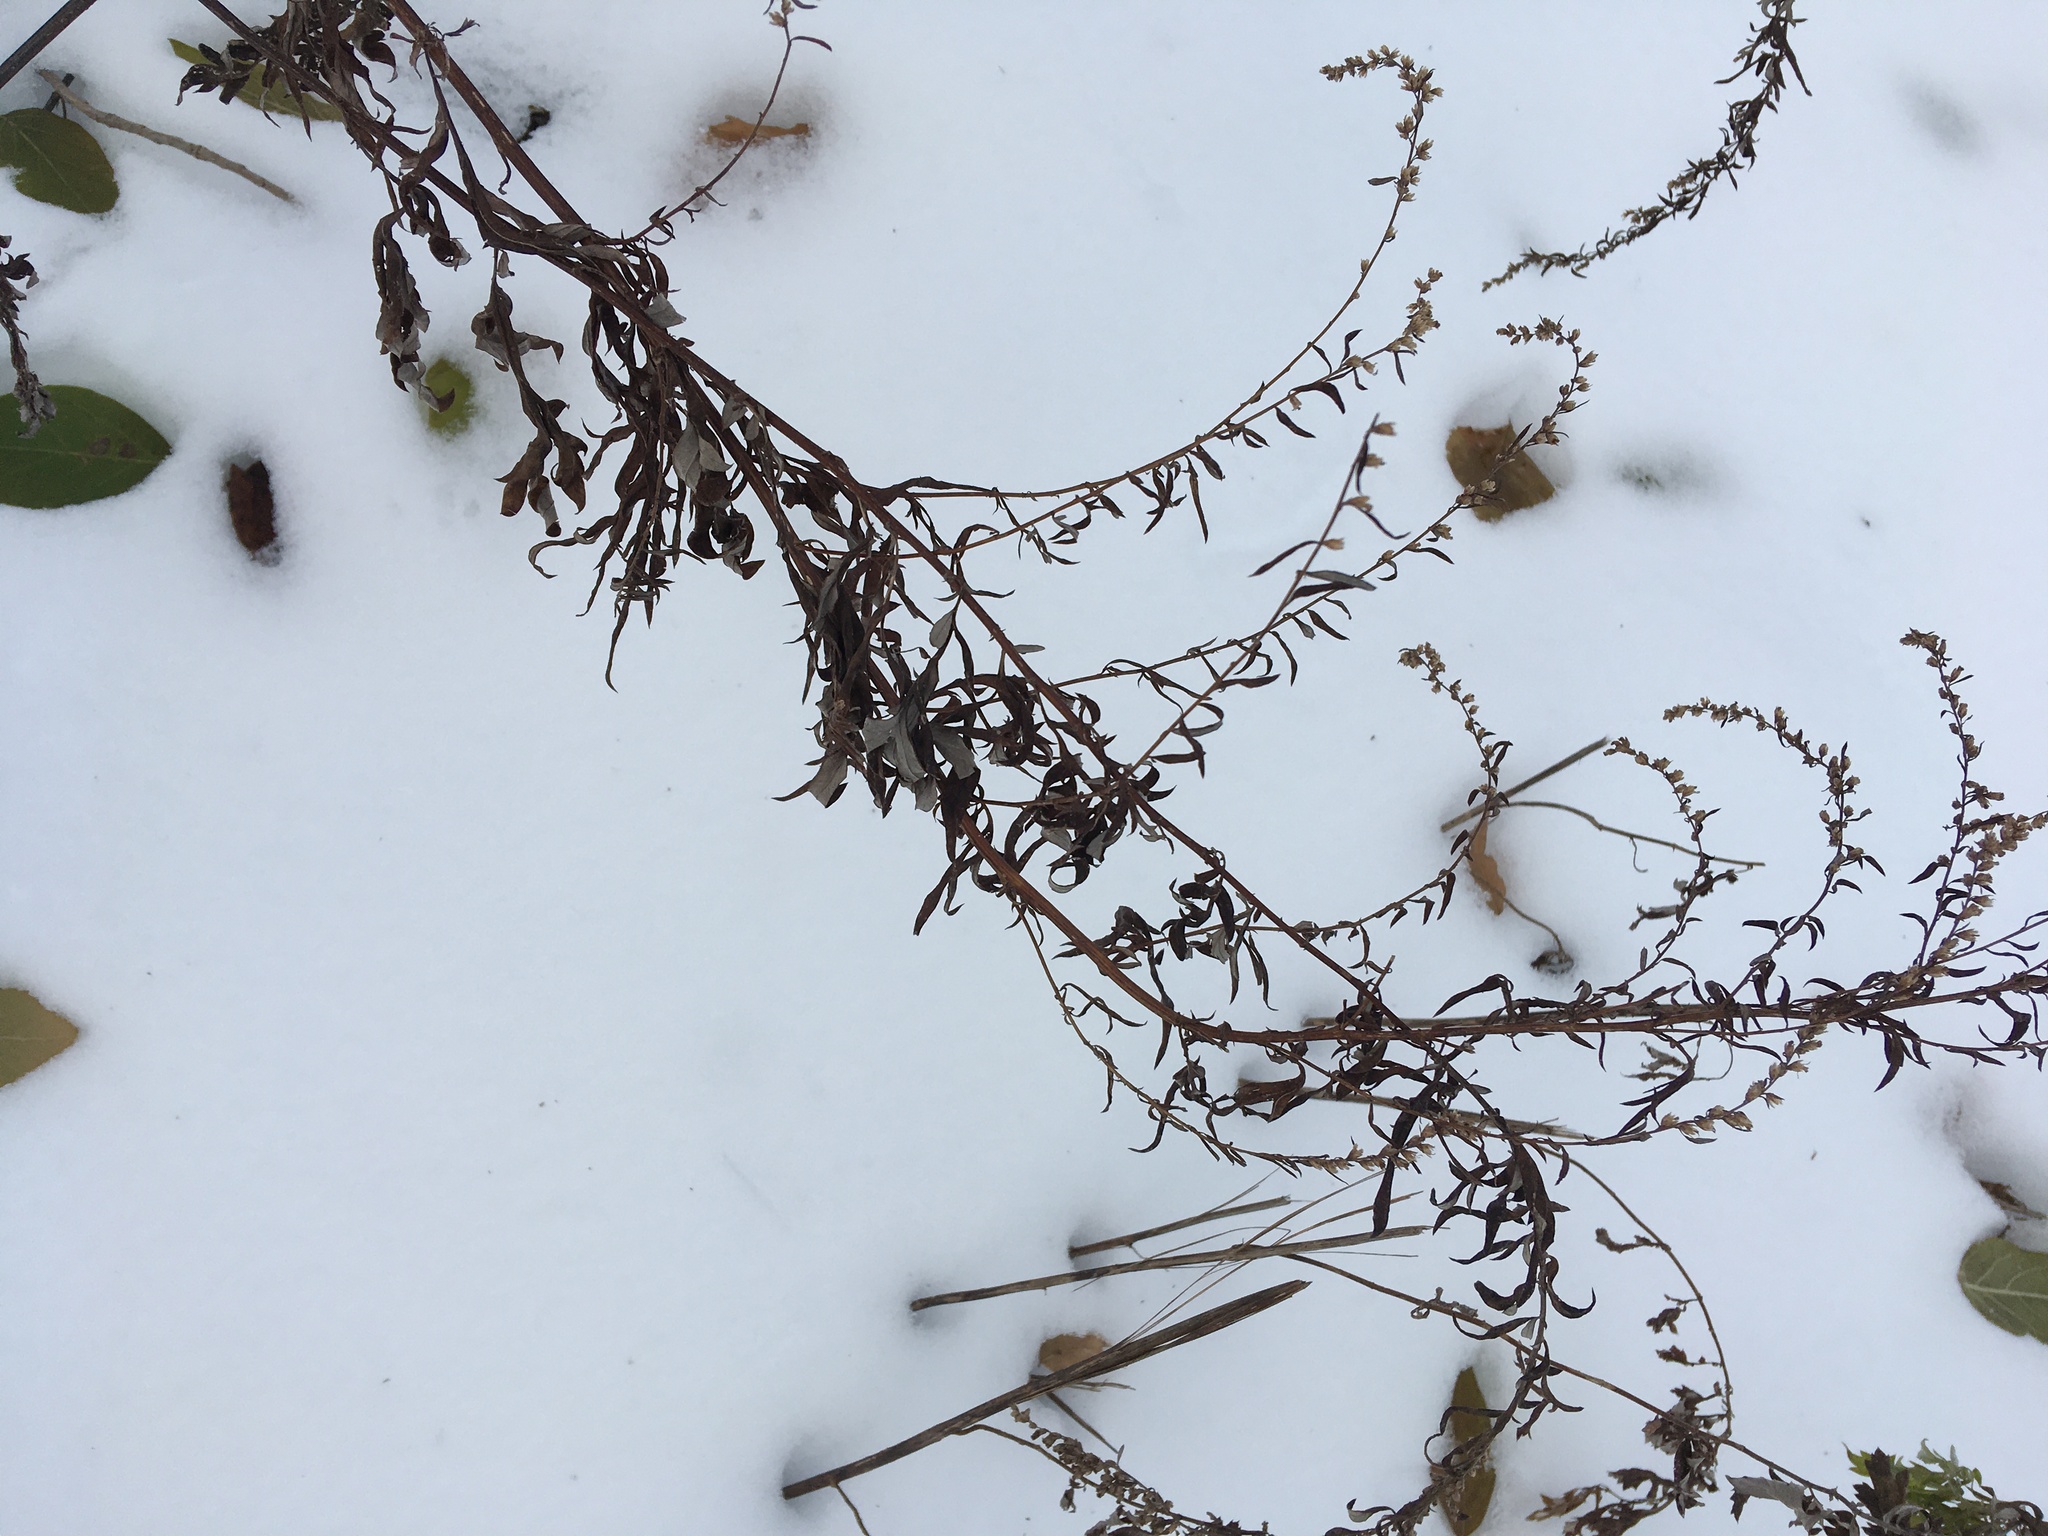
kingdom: Plantae
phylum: Tracheophyta
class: Magnoliopsida
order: Asterales
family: Asteraceae
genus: Artemisia
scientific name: Artemisia vulgaris
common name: Mugwort
